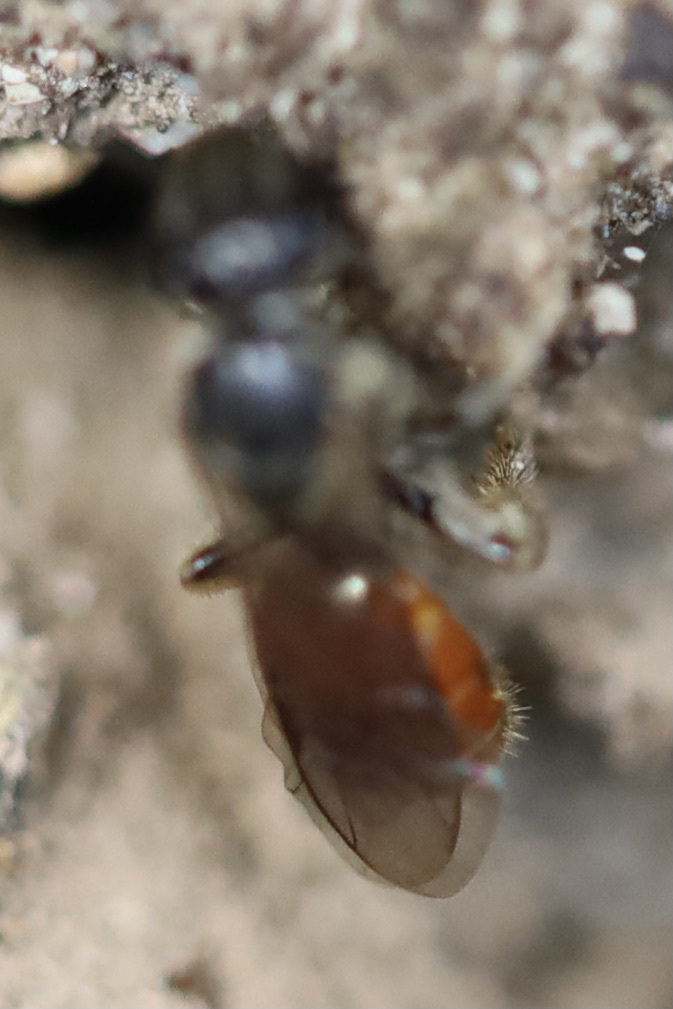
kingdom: Animalia
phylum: Arthropoda
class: Insecta
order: Hymenoptera
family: Halictidae
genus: Lasioglossum
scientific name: Lasioglossum ovaliceps
